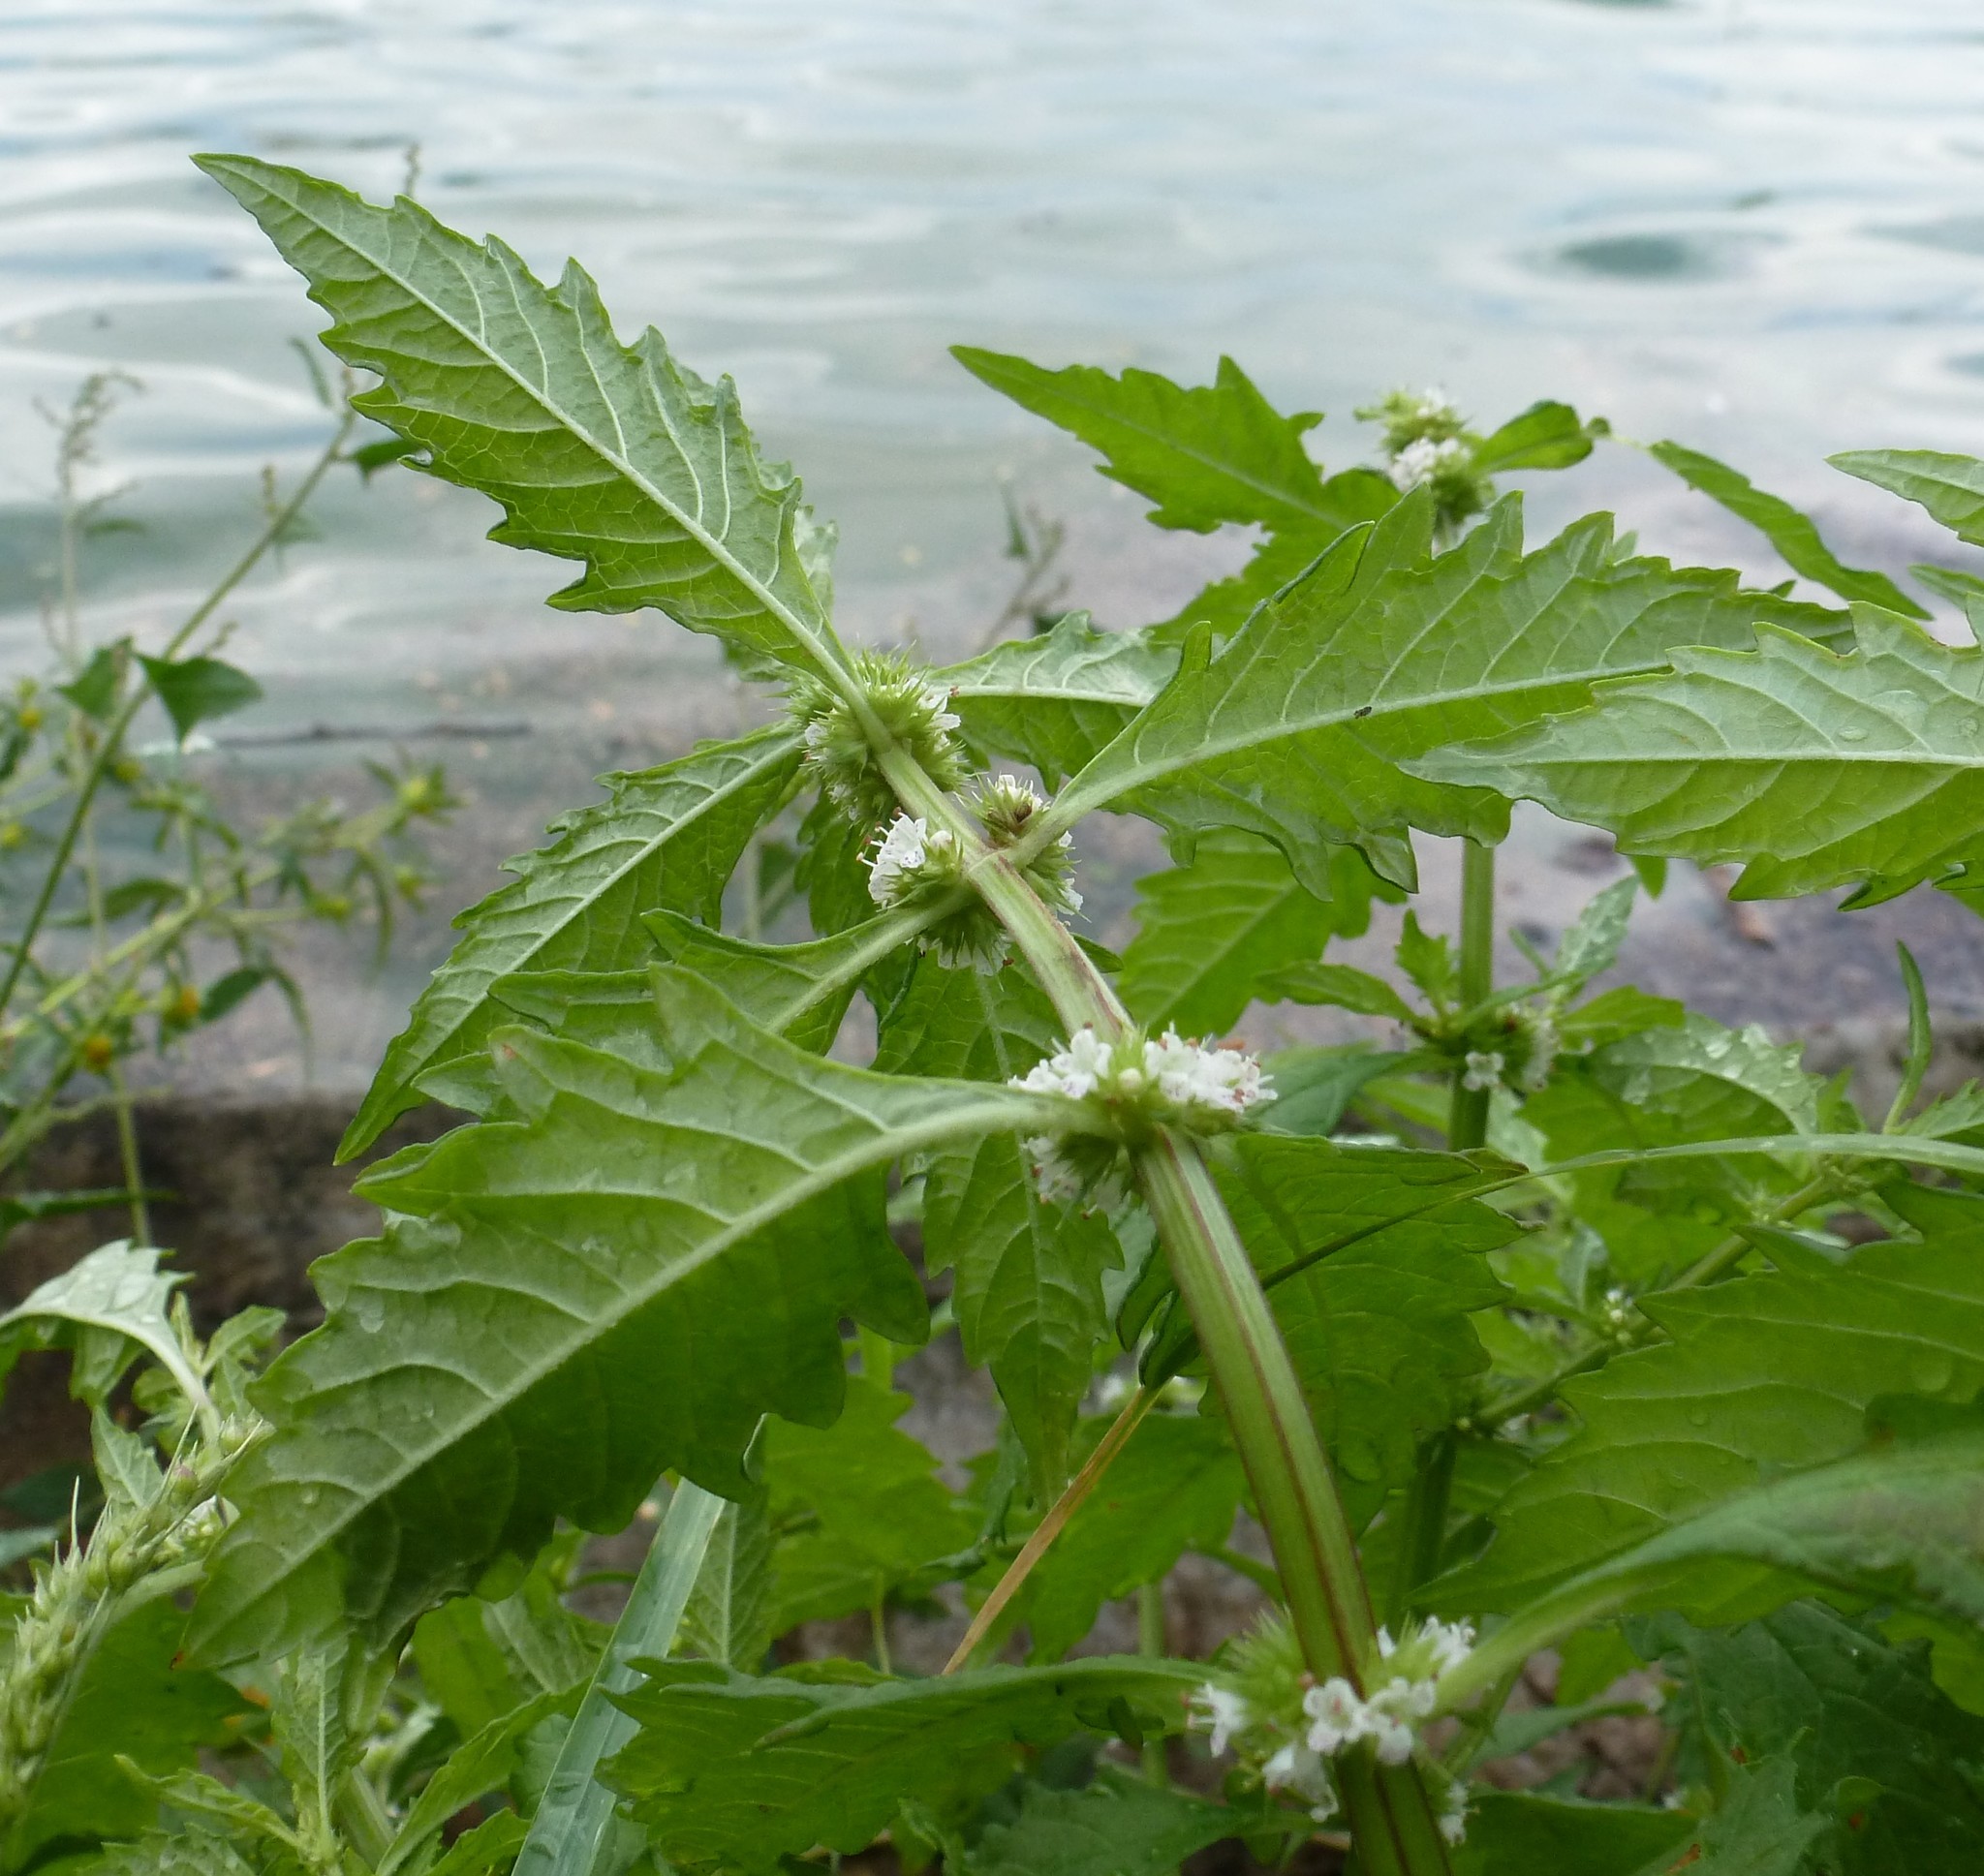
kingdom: Plantae
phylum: Tracheophyta
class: Magnoliopsida
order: Lamiales
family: Lamiaceae
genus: Lycopus
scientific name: Lycopus europaeus
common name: European bugleweed
